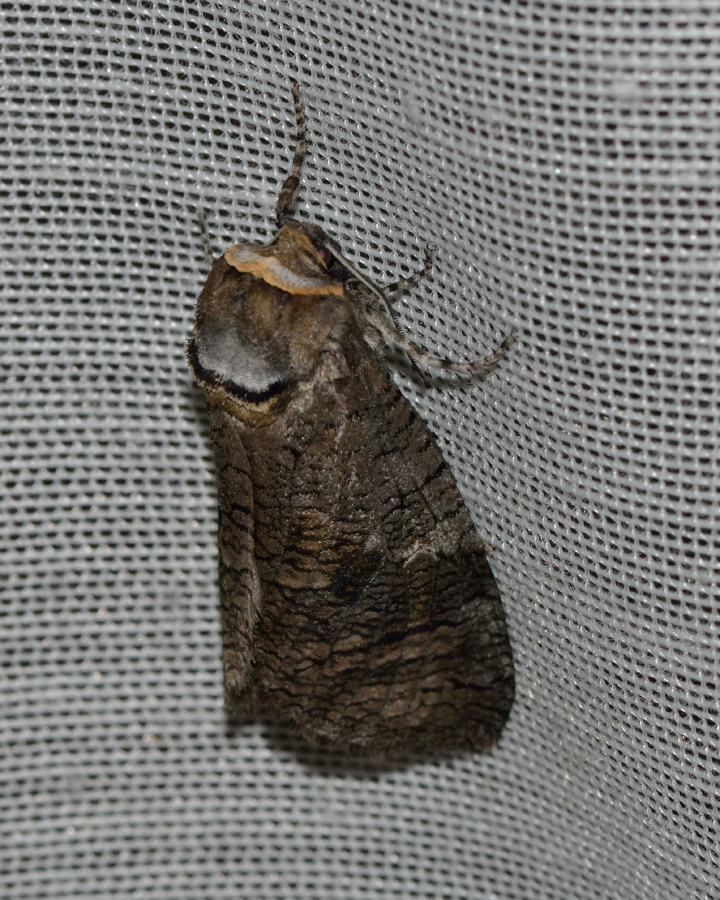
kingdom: Animalia
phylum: Arthropoda
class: Insecta
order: Lepidoptera
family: Cossidae
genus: Cossus
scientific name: Cossus cossus
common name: Goat moth
